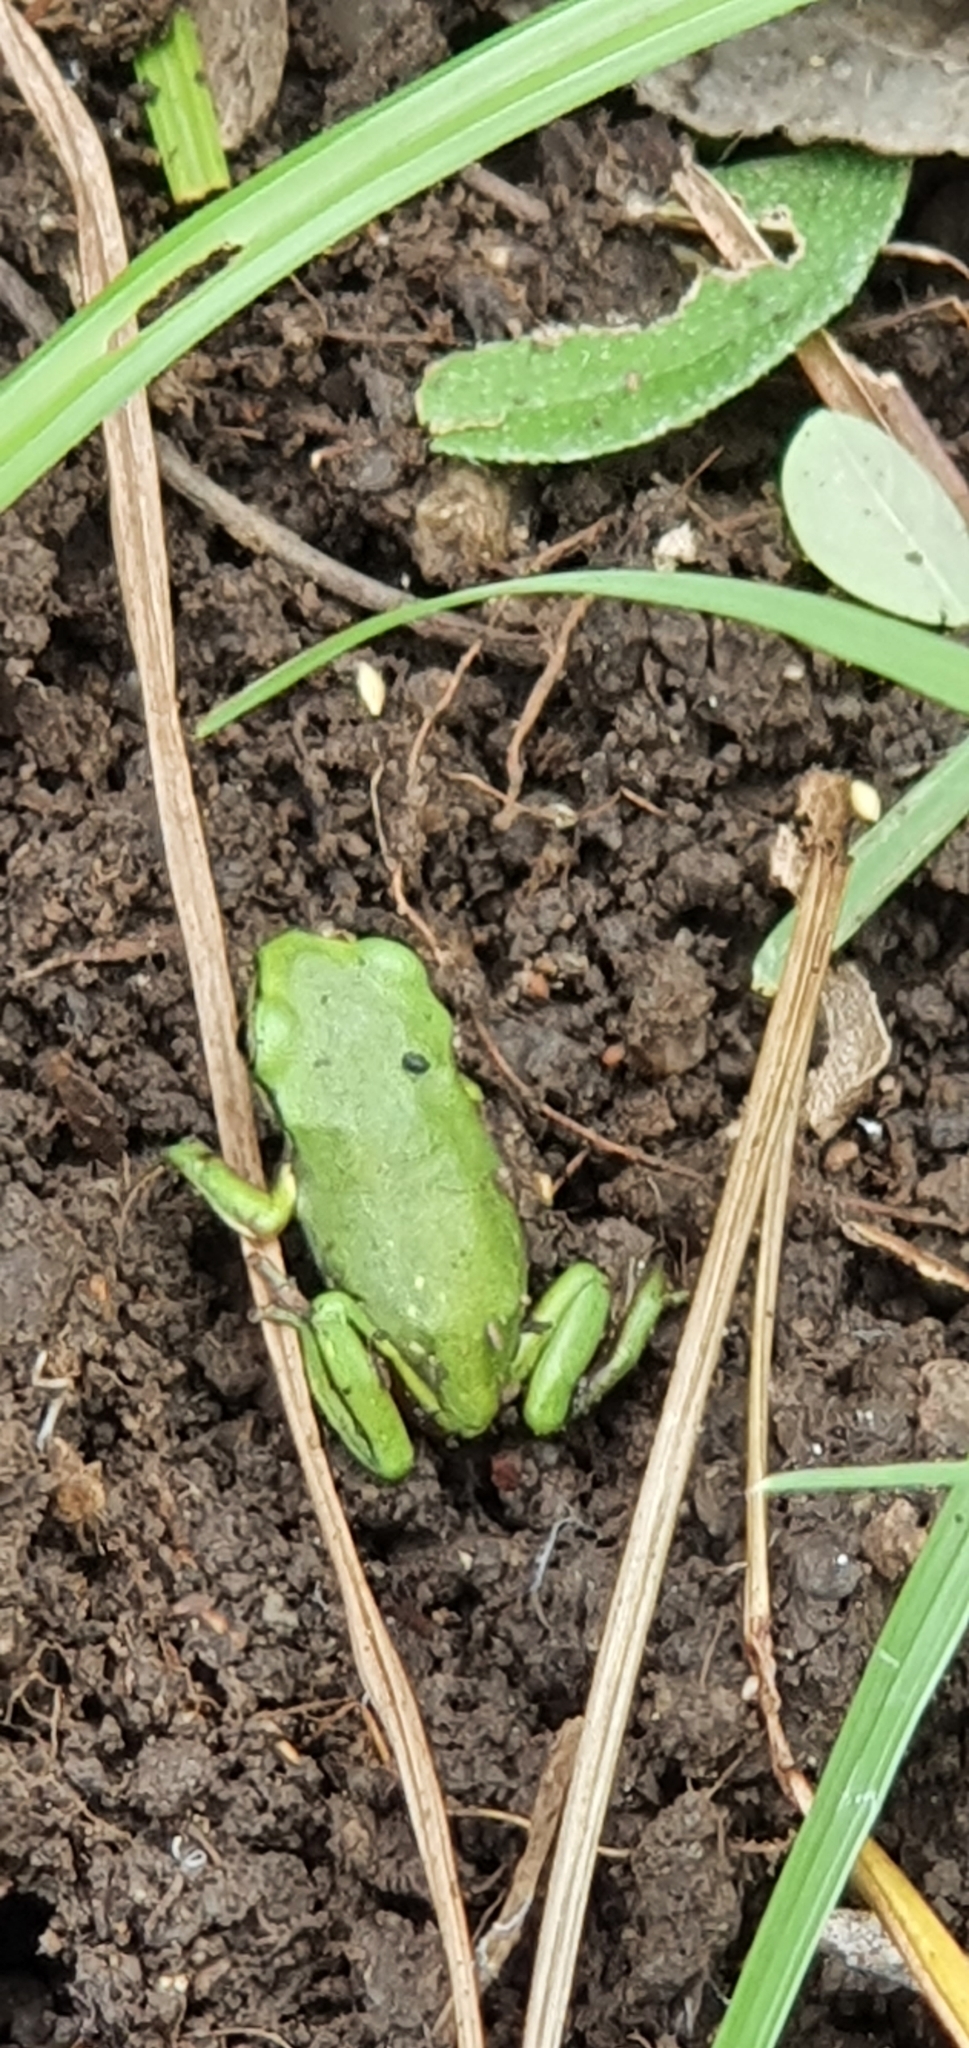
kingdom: Animalia
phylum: Chordata
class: Amphibia
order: Anura
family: Pelodryadidae
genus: Ranoidea
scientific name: Ranoidea caerulea
